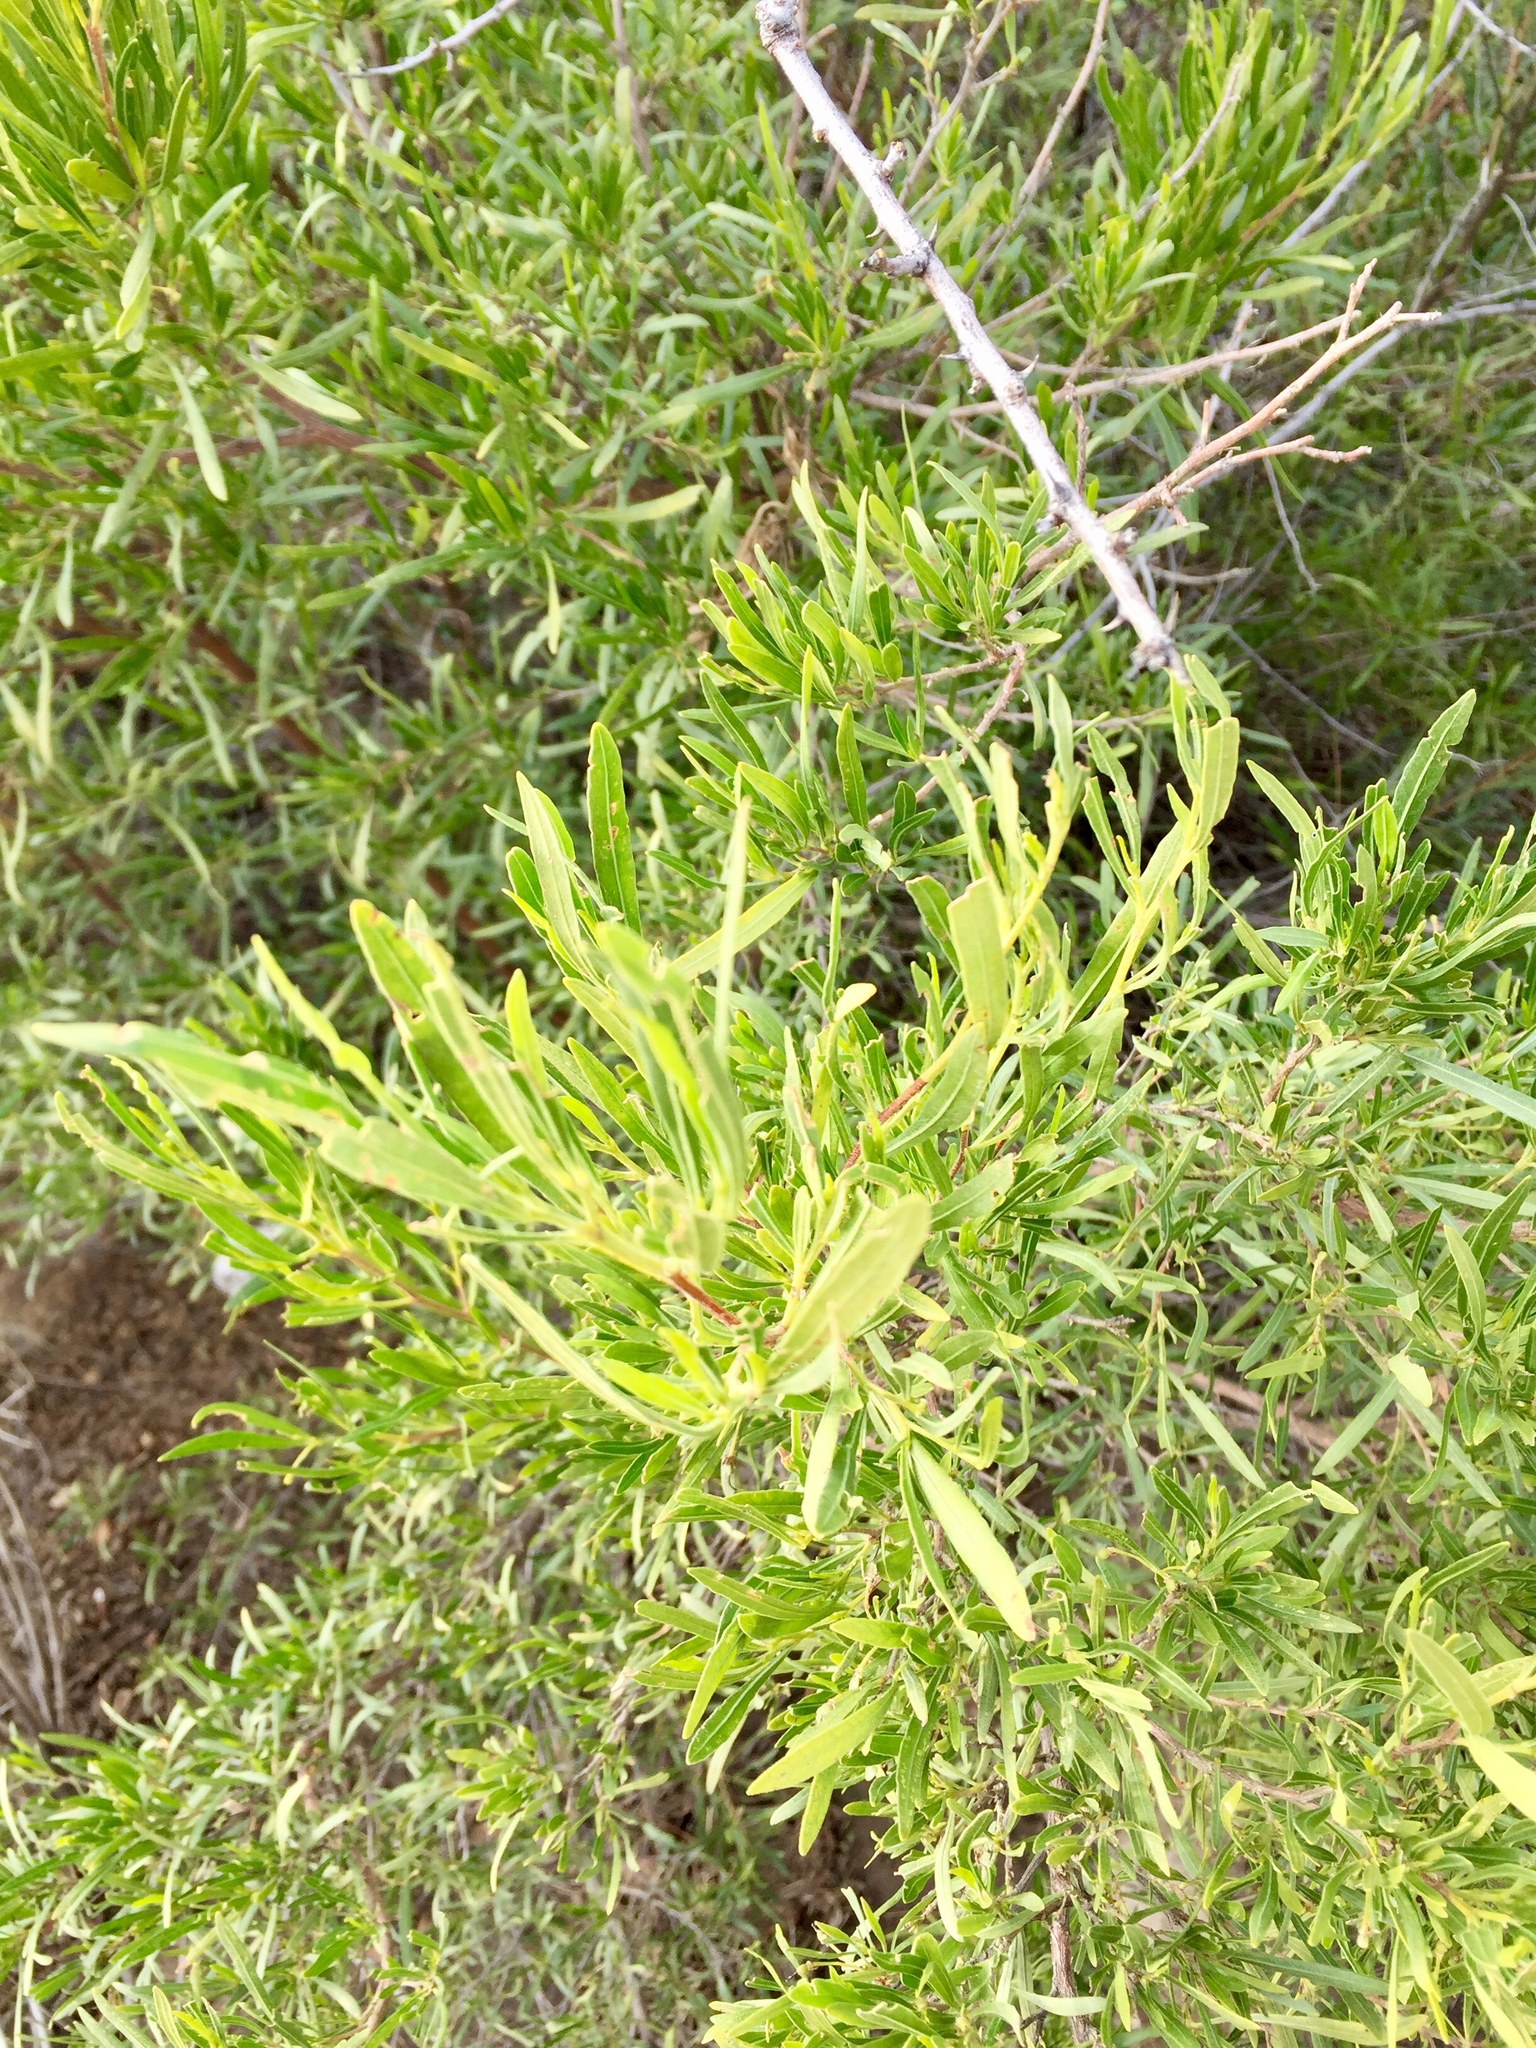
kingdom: Plantae
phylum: Tracheophyta
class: Magnoliopsida
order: Sapindales
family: Sapindaceae
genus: Dodonaea
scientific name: Dodonaea viscosa
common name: Hopbush
